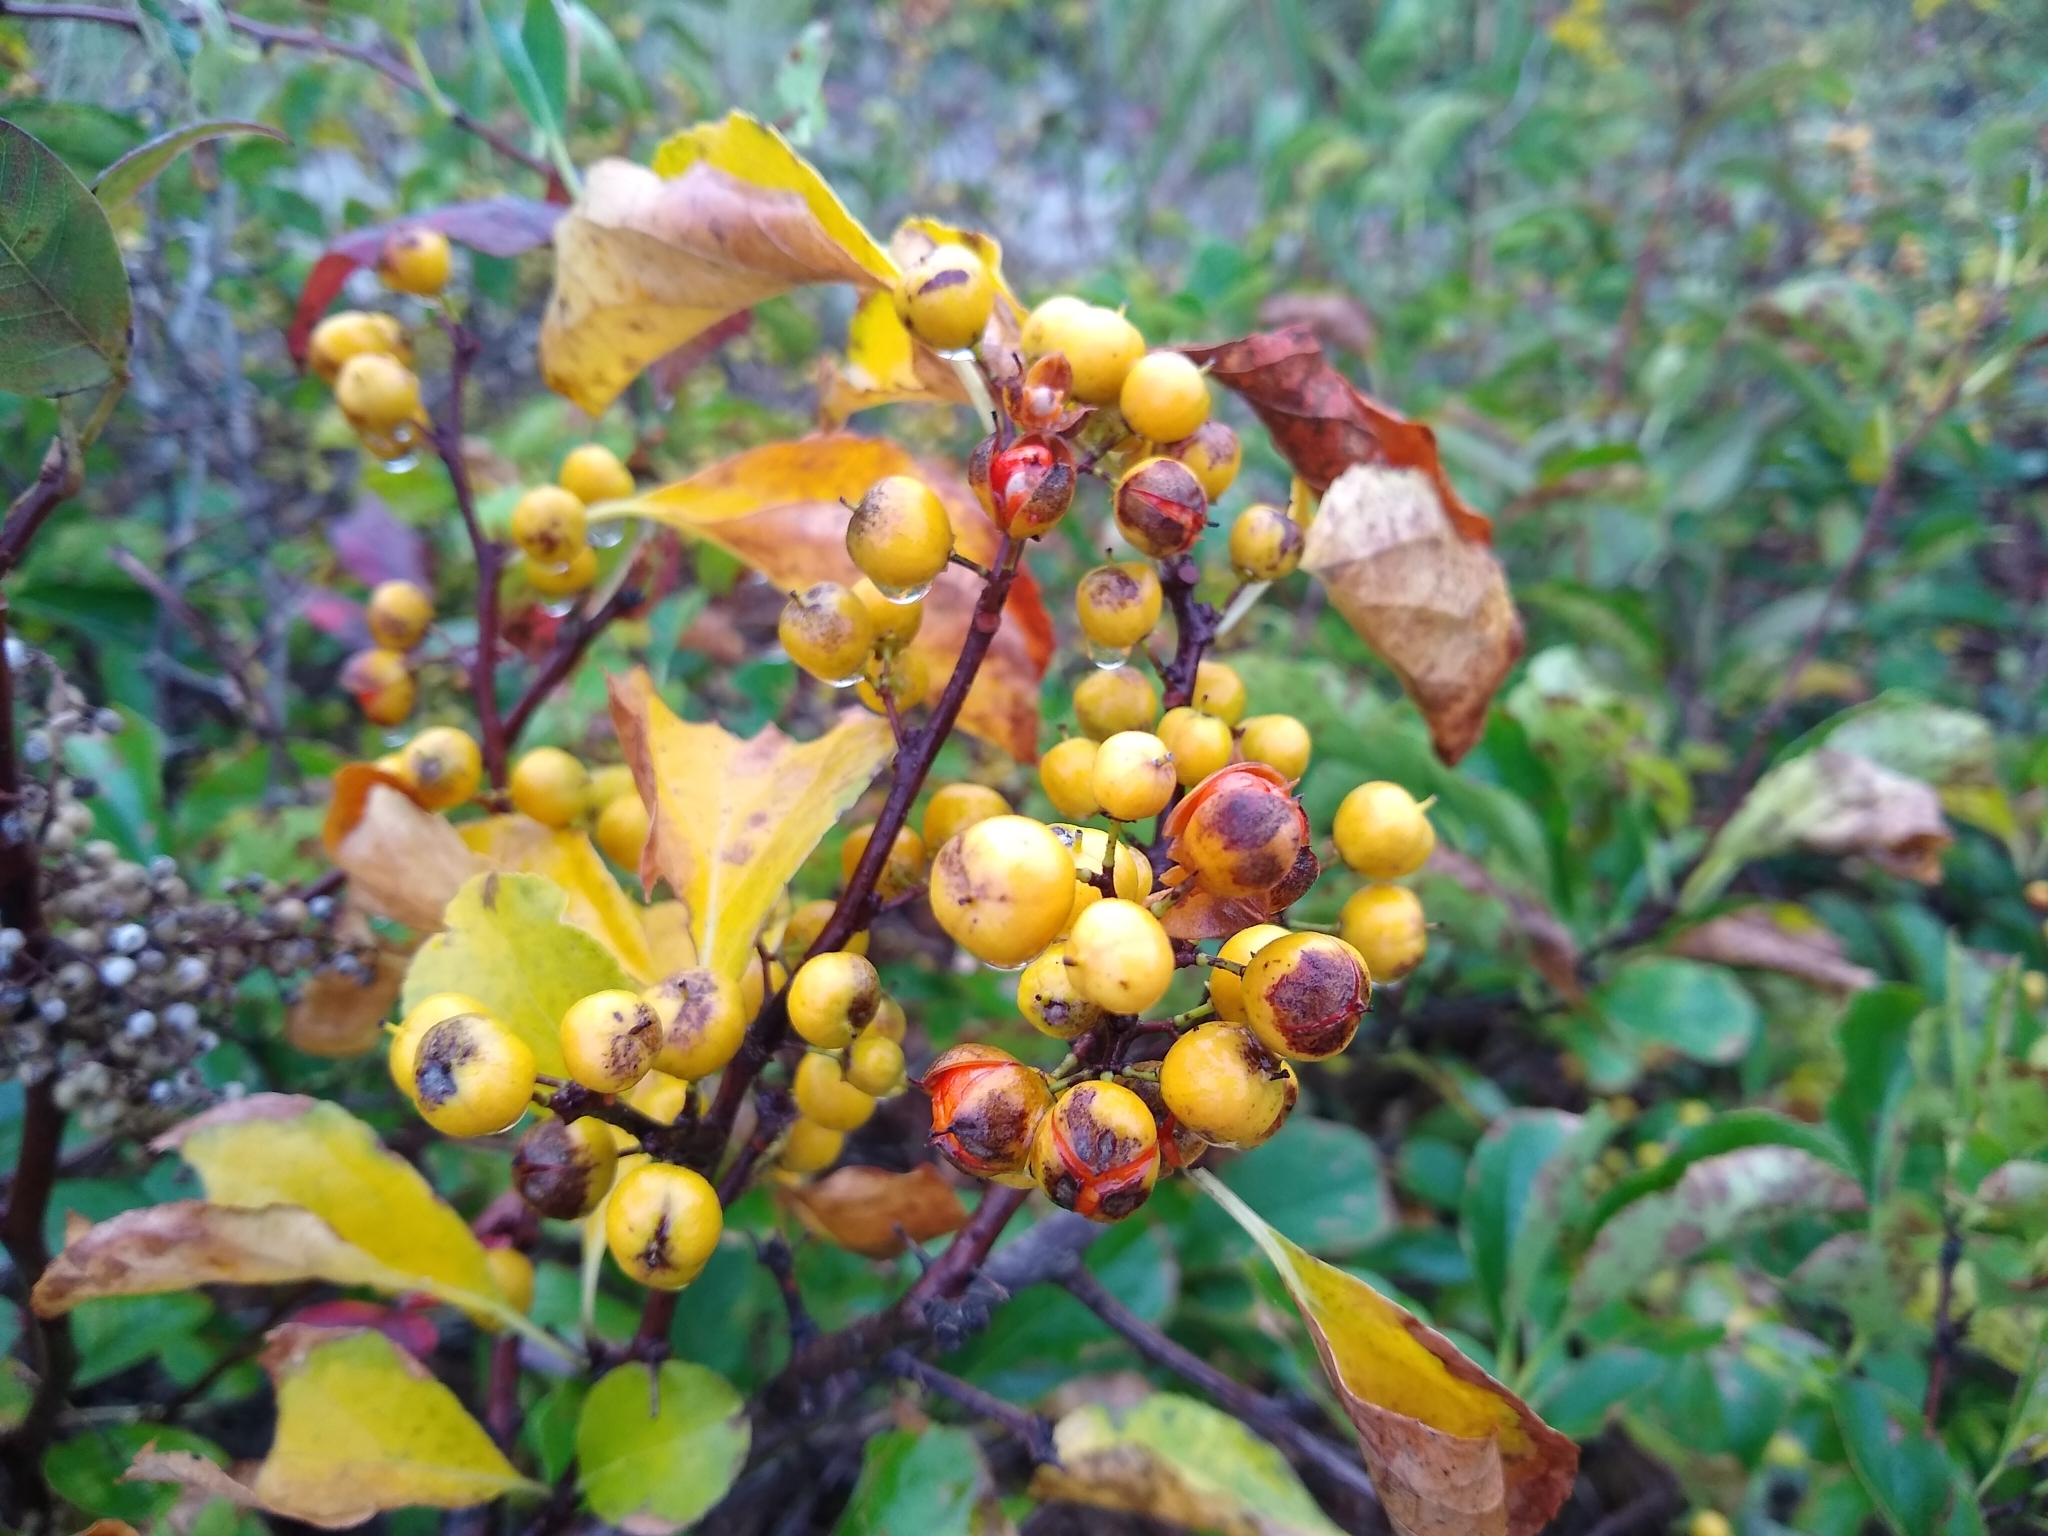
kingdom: Plantae
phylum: Tracheophyta
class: Magnoliopsida
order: Celastrales
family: Celastraceae
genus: Celastrus
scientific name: Celastrus orbiculatus
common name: Oriental bittersweet
